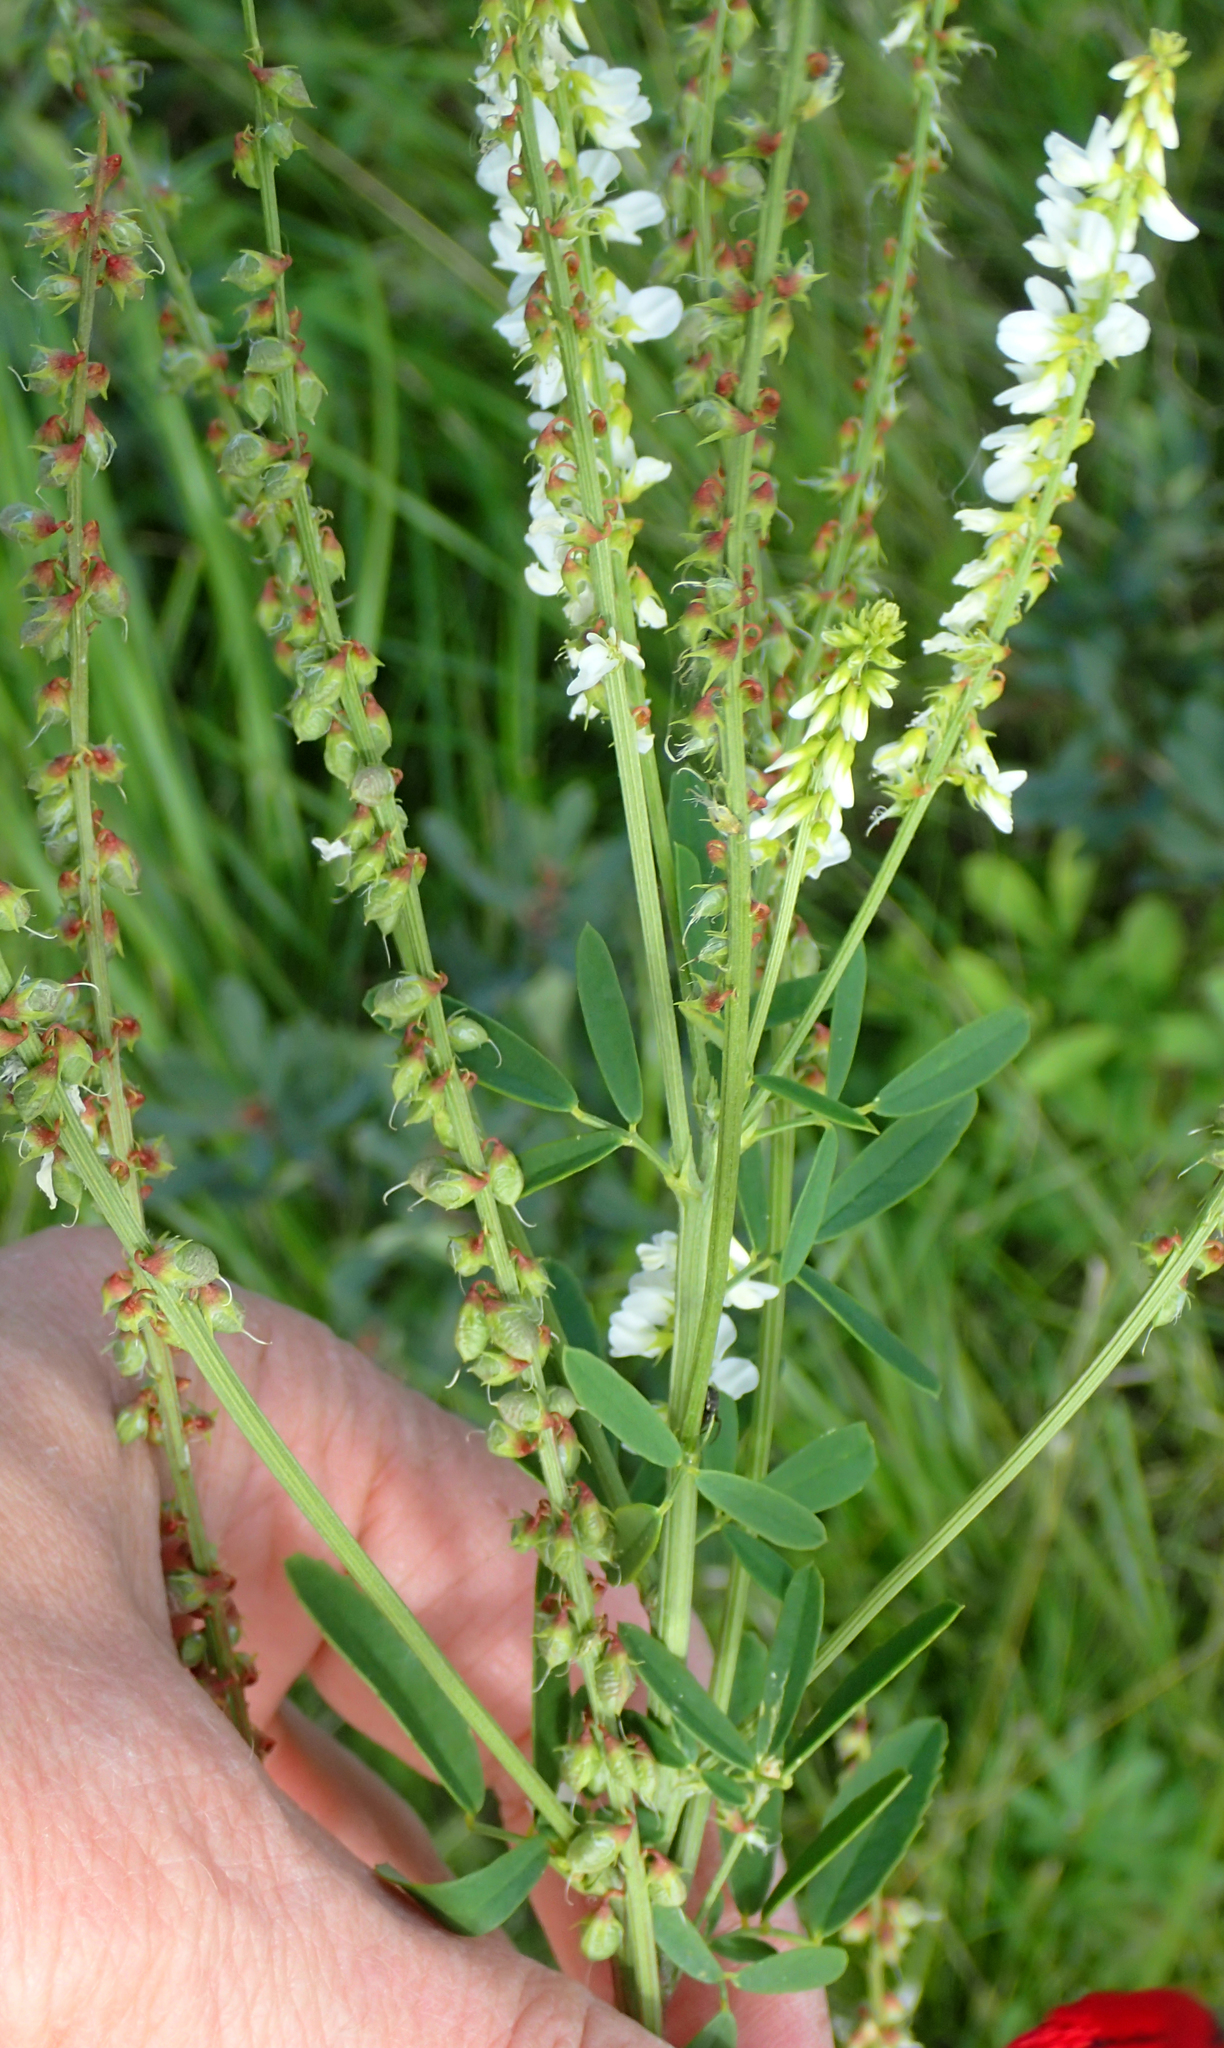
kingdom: Plantae
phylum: Tracheophyta
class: Magnoliopsida
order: Fabales
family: Fabaceae
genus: Melilotus
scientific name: Melilotus albus
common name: White melilot
